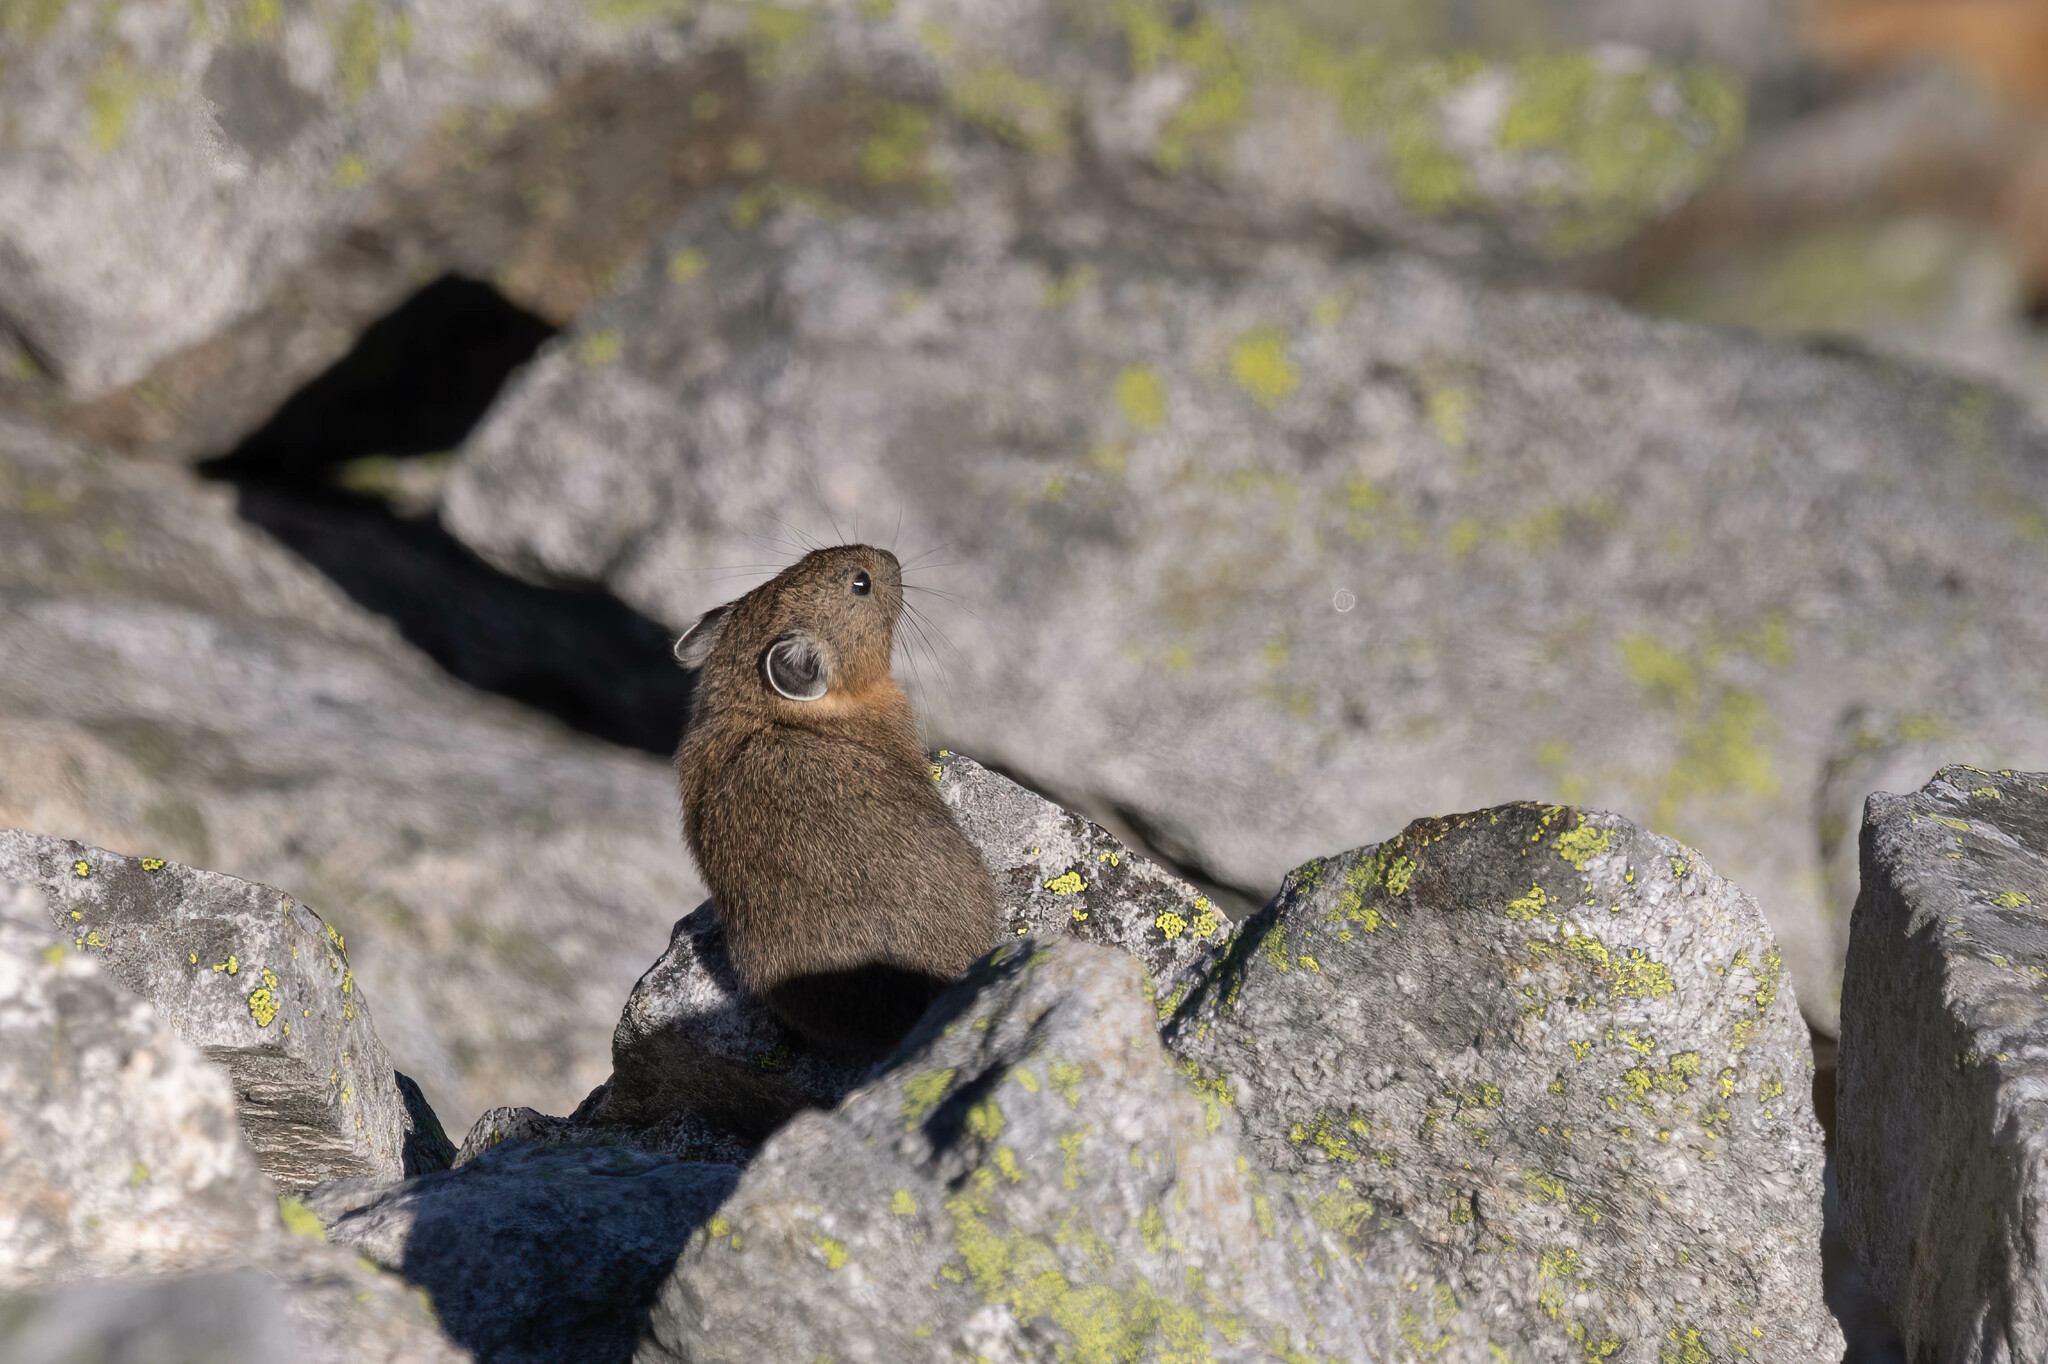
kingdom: Animalia
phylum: Chordata
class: Mammalia
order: Lagomorpha
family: Ochotonidae
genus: Ochotona
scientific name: Ochotona princeps
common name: American pika
